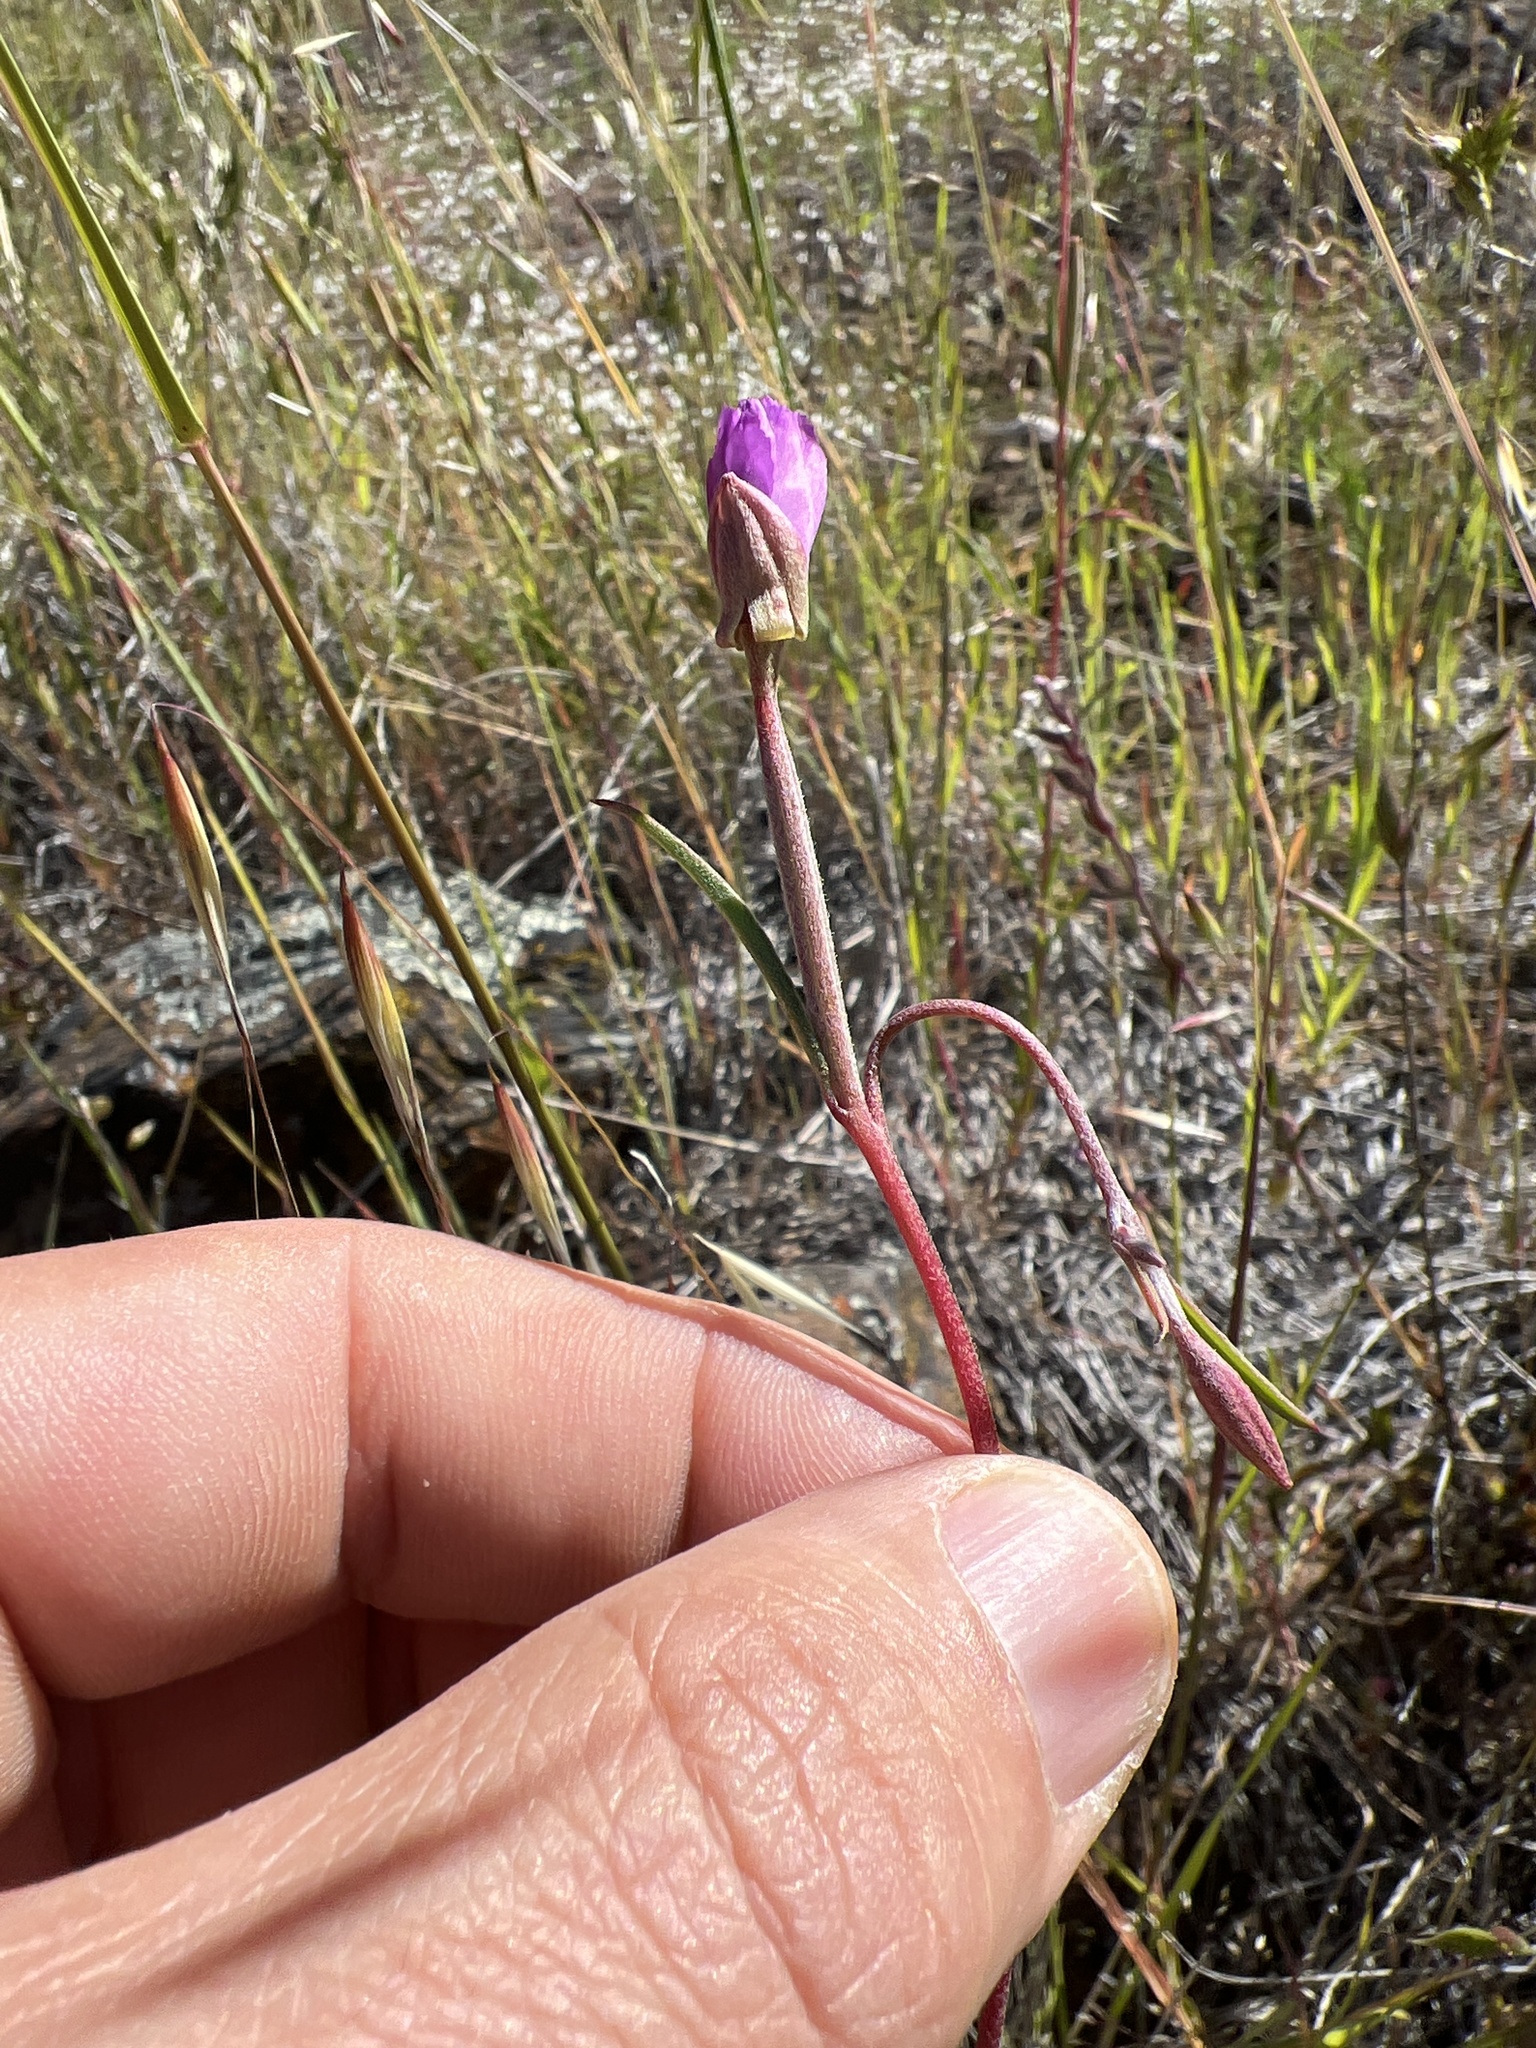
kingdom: Plantae
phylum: Tracheophyta
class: Magnoliopsida
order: Myrtales
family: Onagraceae
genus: Clarkia
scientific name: Clarkia gracilis
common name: Graceful clarkia
